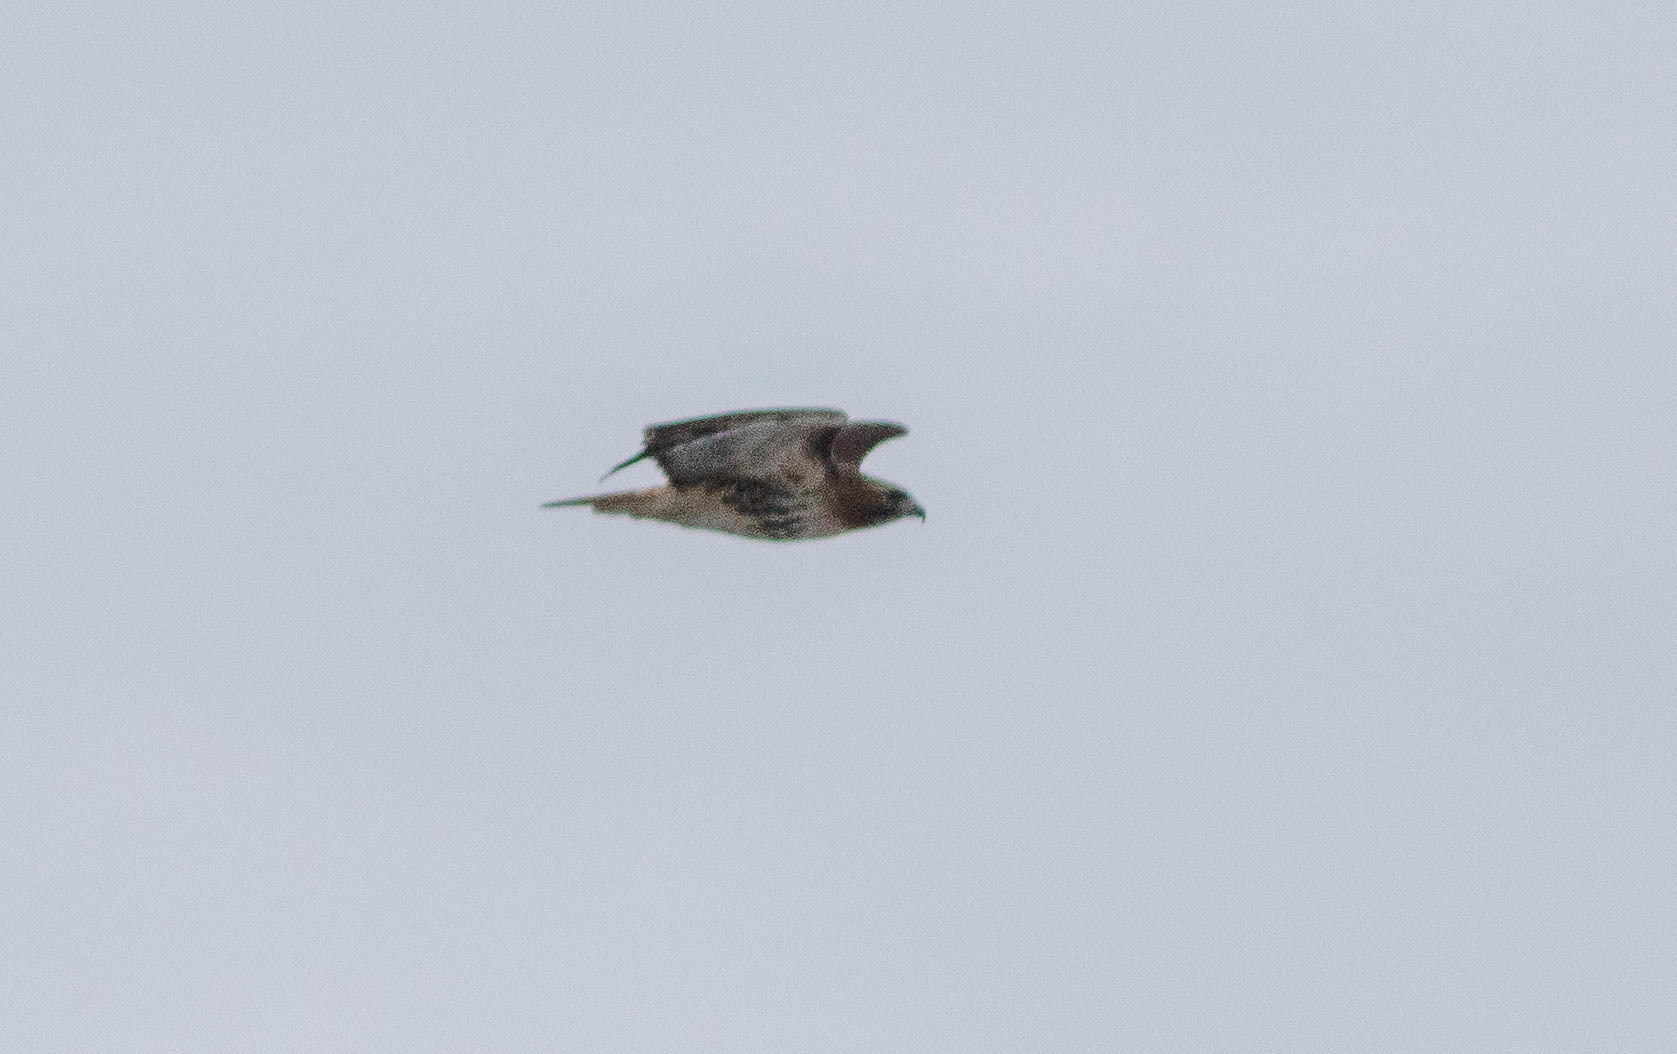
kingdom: Animalia
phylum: Chordata
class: Aves
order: Accipitriformes
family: Accipitridae
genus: Buteo
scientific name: Buteo jamaicensis
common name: Red-tailed hawk
